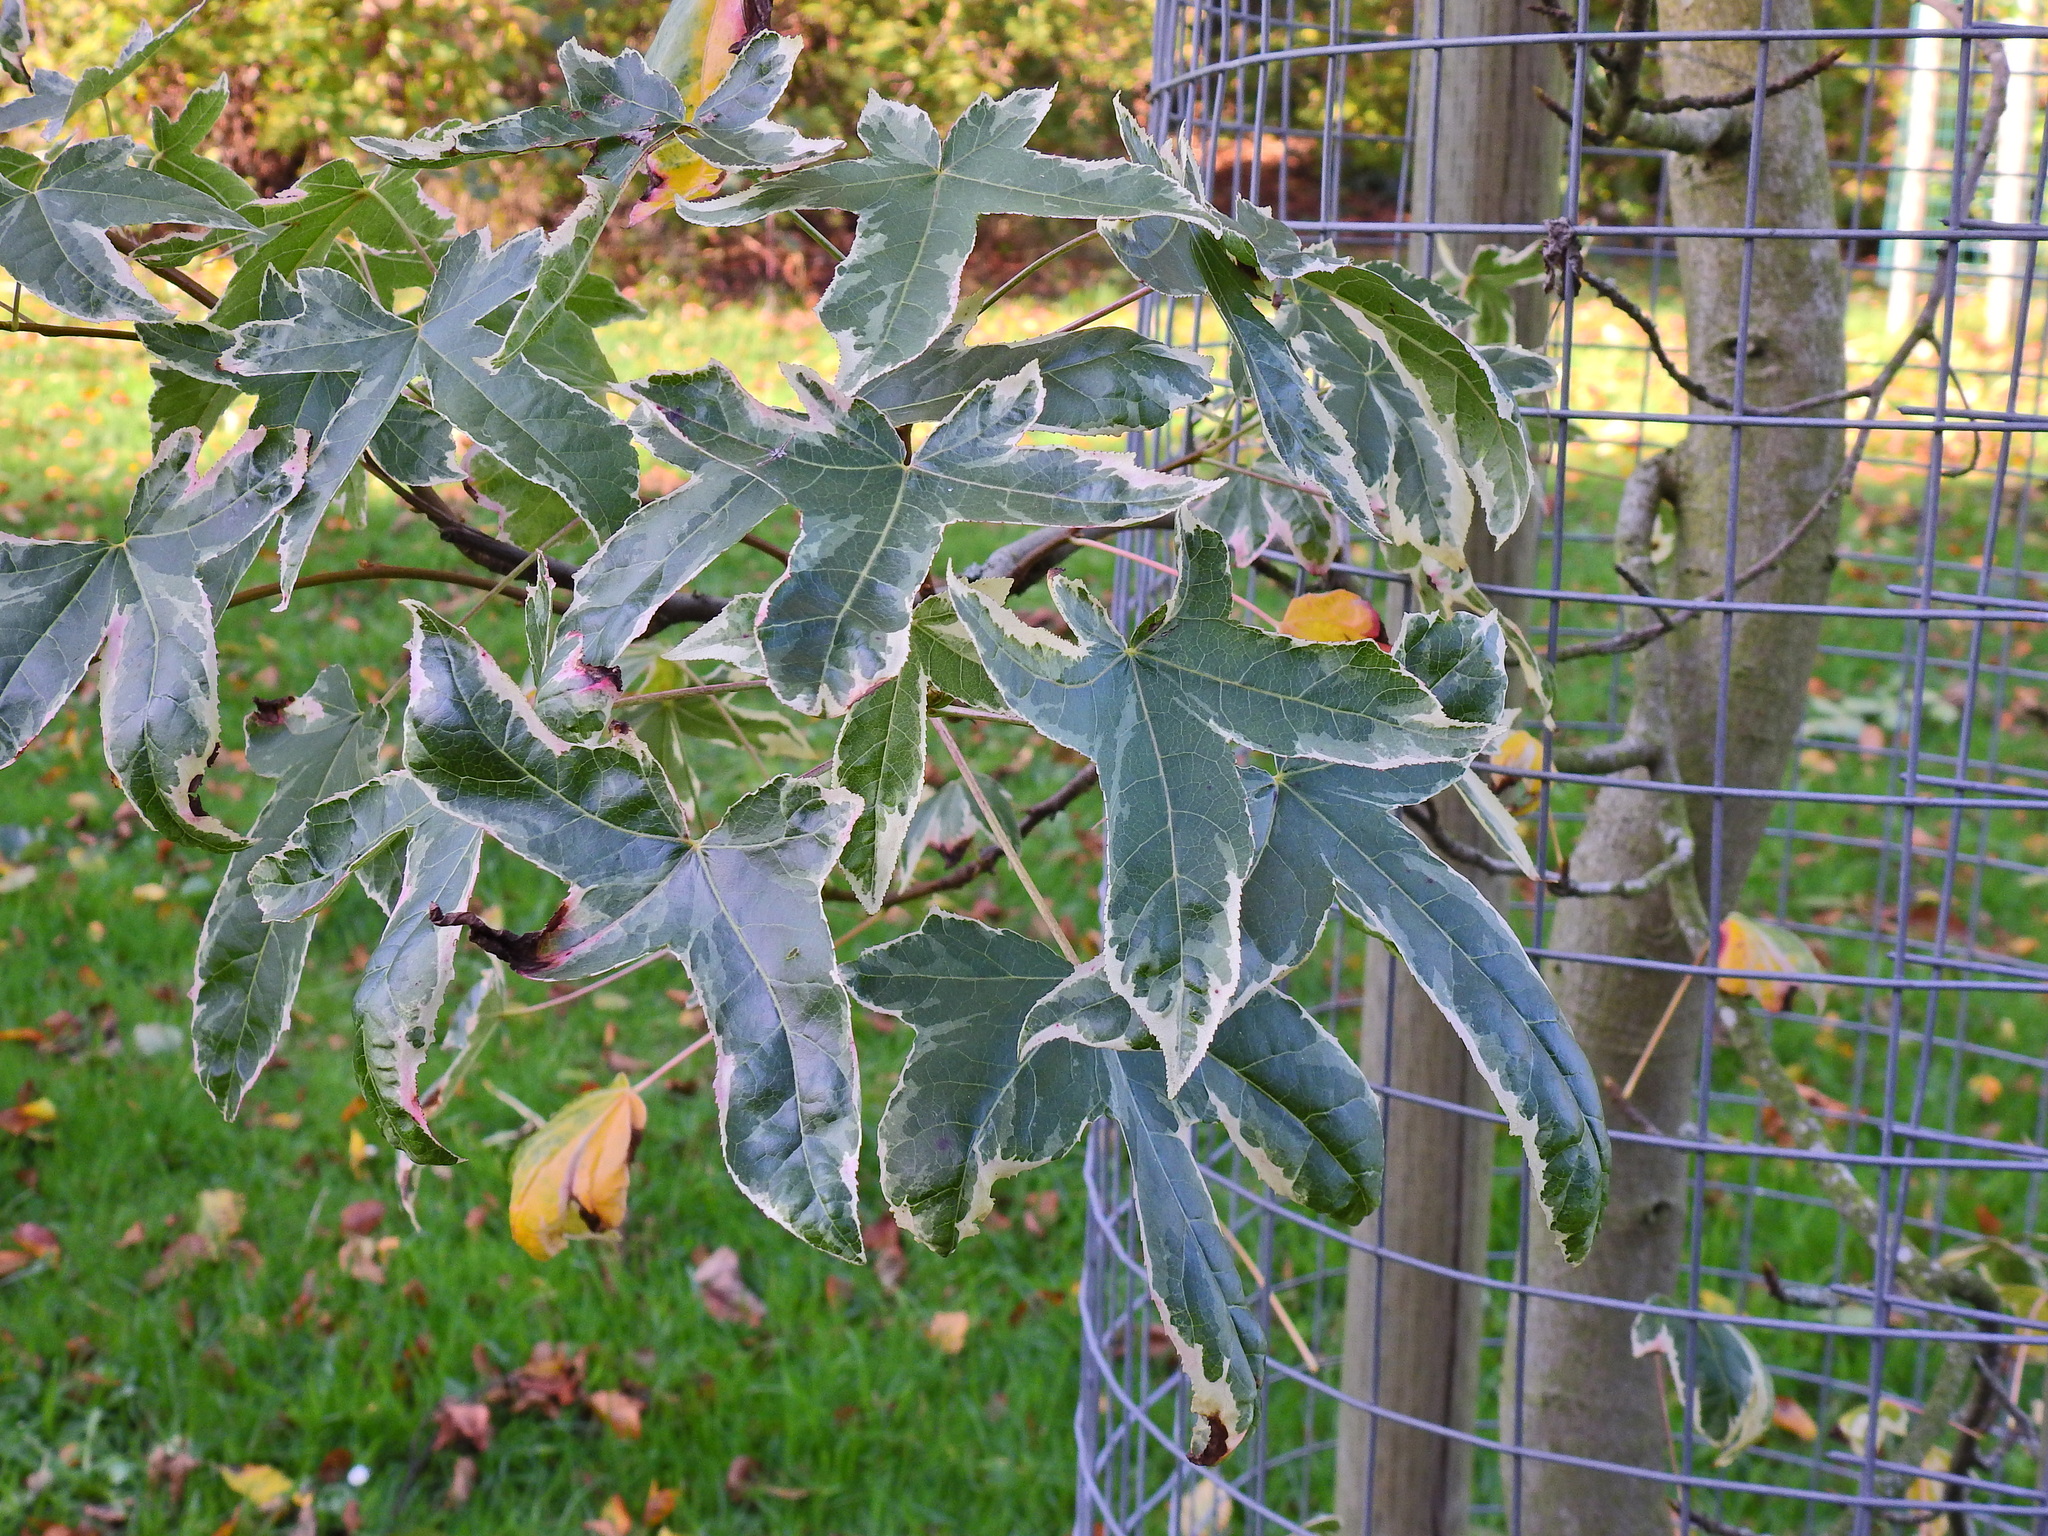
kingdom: Plantae
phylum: Tracheophyta
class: Magnoliopsida
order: Saxifragales
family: Altingiaceae
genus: Liquidambar
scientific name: Liquidambar styraciflua
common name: Sweet gum
